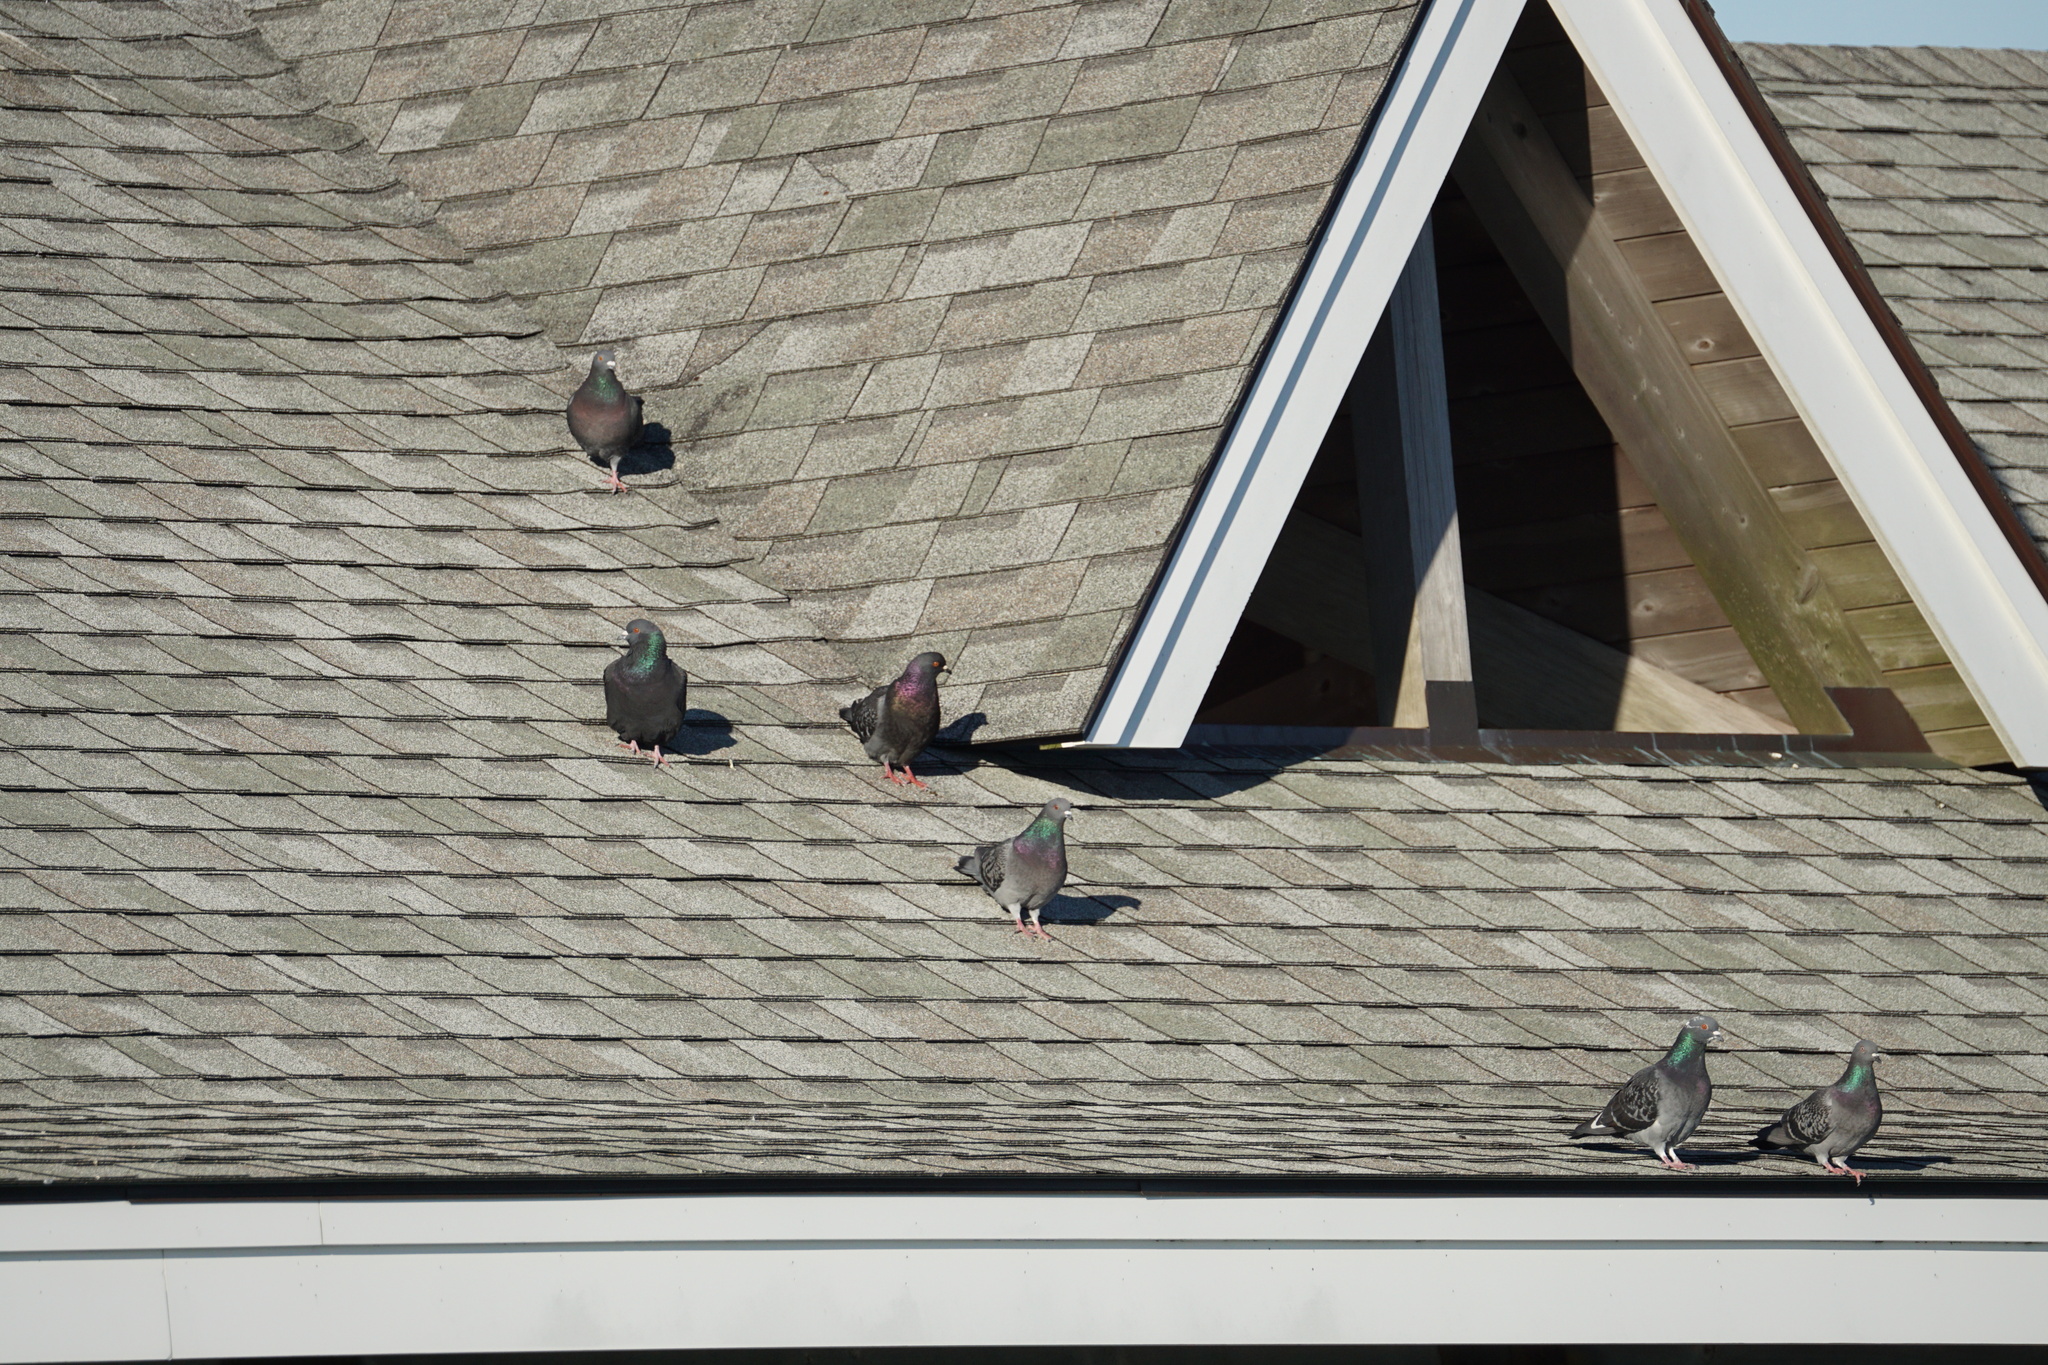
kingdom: Animalia
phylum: Chordata
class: Aves
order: Columbiformes
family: Columbidae
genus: Columba
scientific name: Columba livia
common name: Rock pigeon
